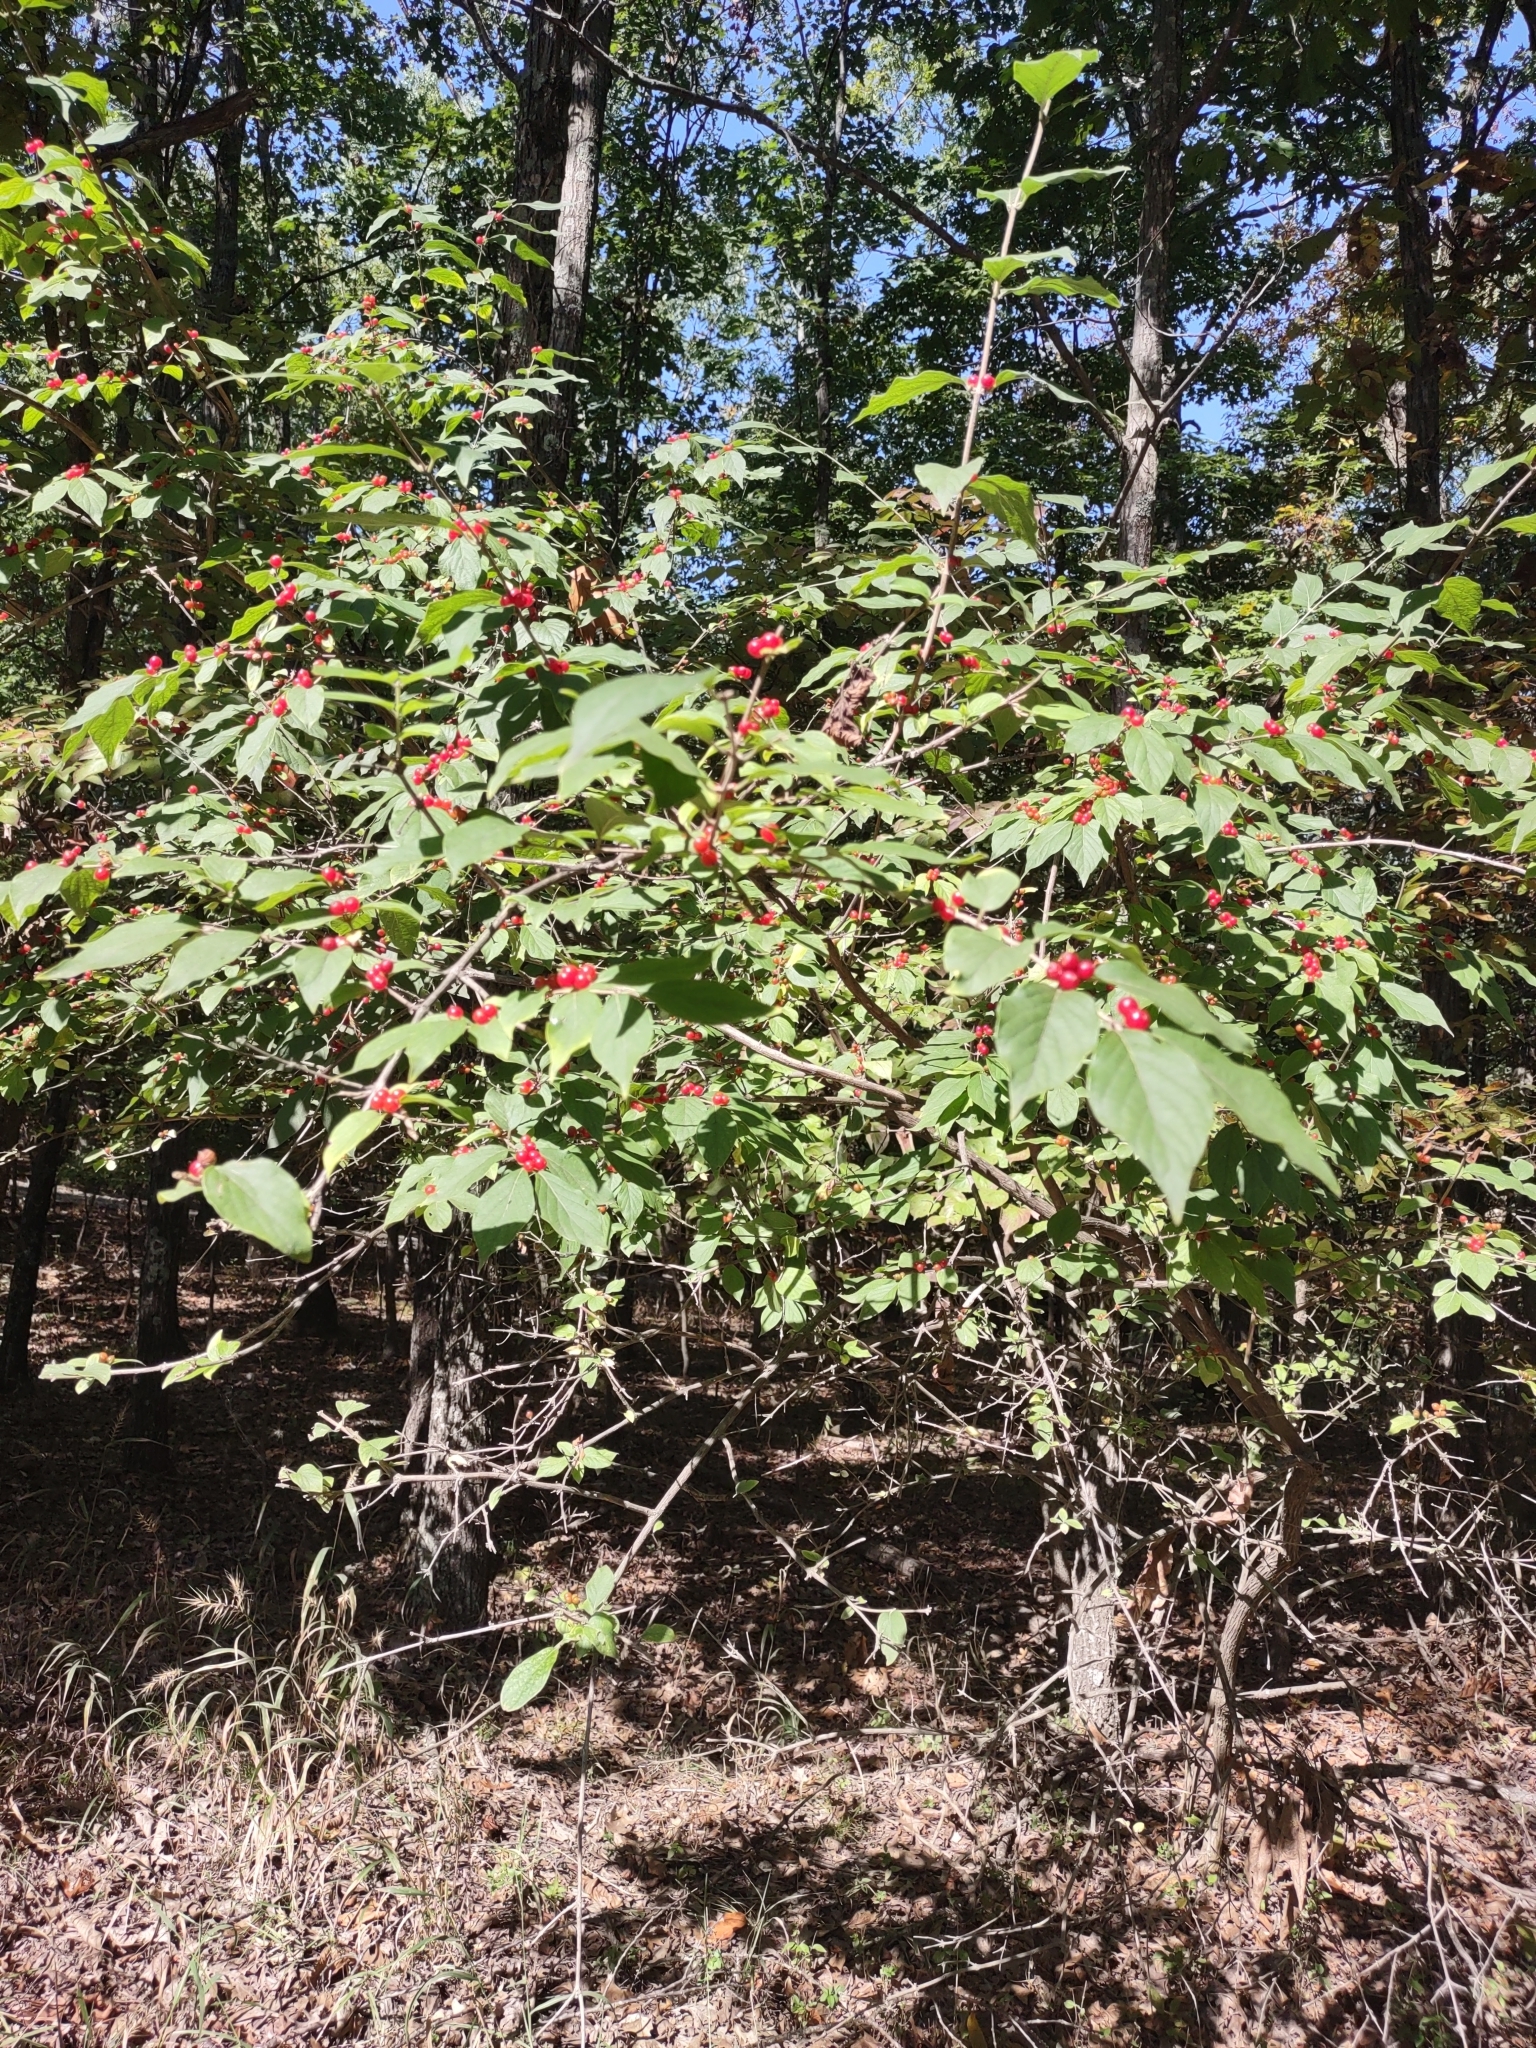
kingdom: Plantae
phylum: Tracheophyta
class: Magnoliopsida
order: Dipsacales
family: Caprifoliaceae
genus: Lonicera
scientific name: Lonicera maackii
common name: Amur honeysuckle
